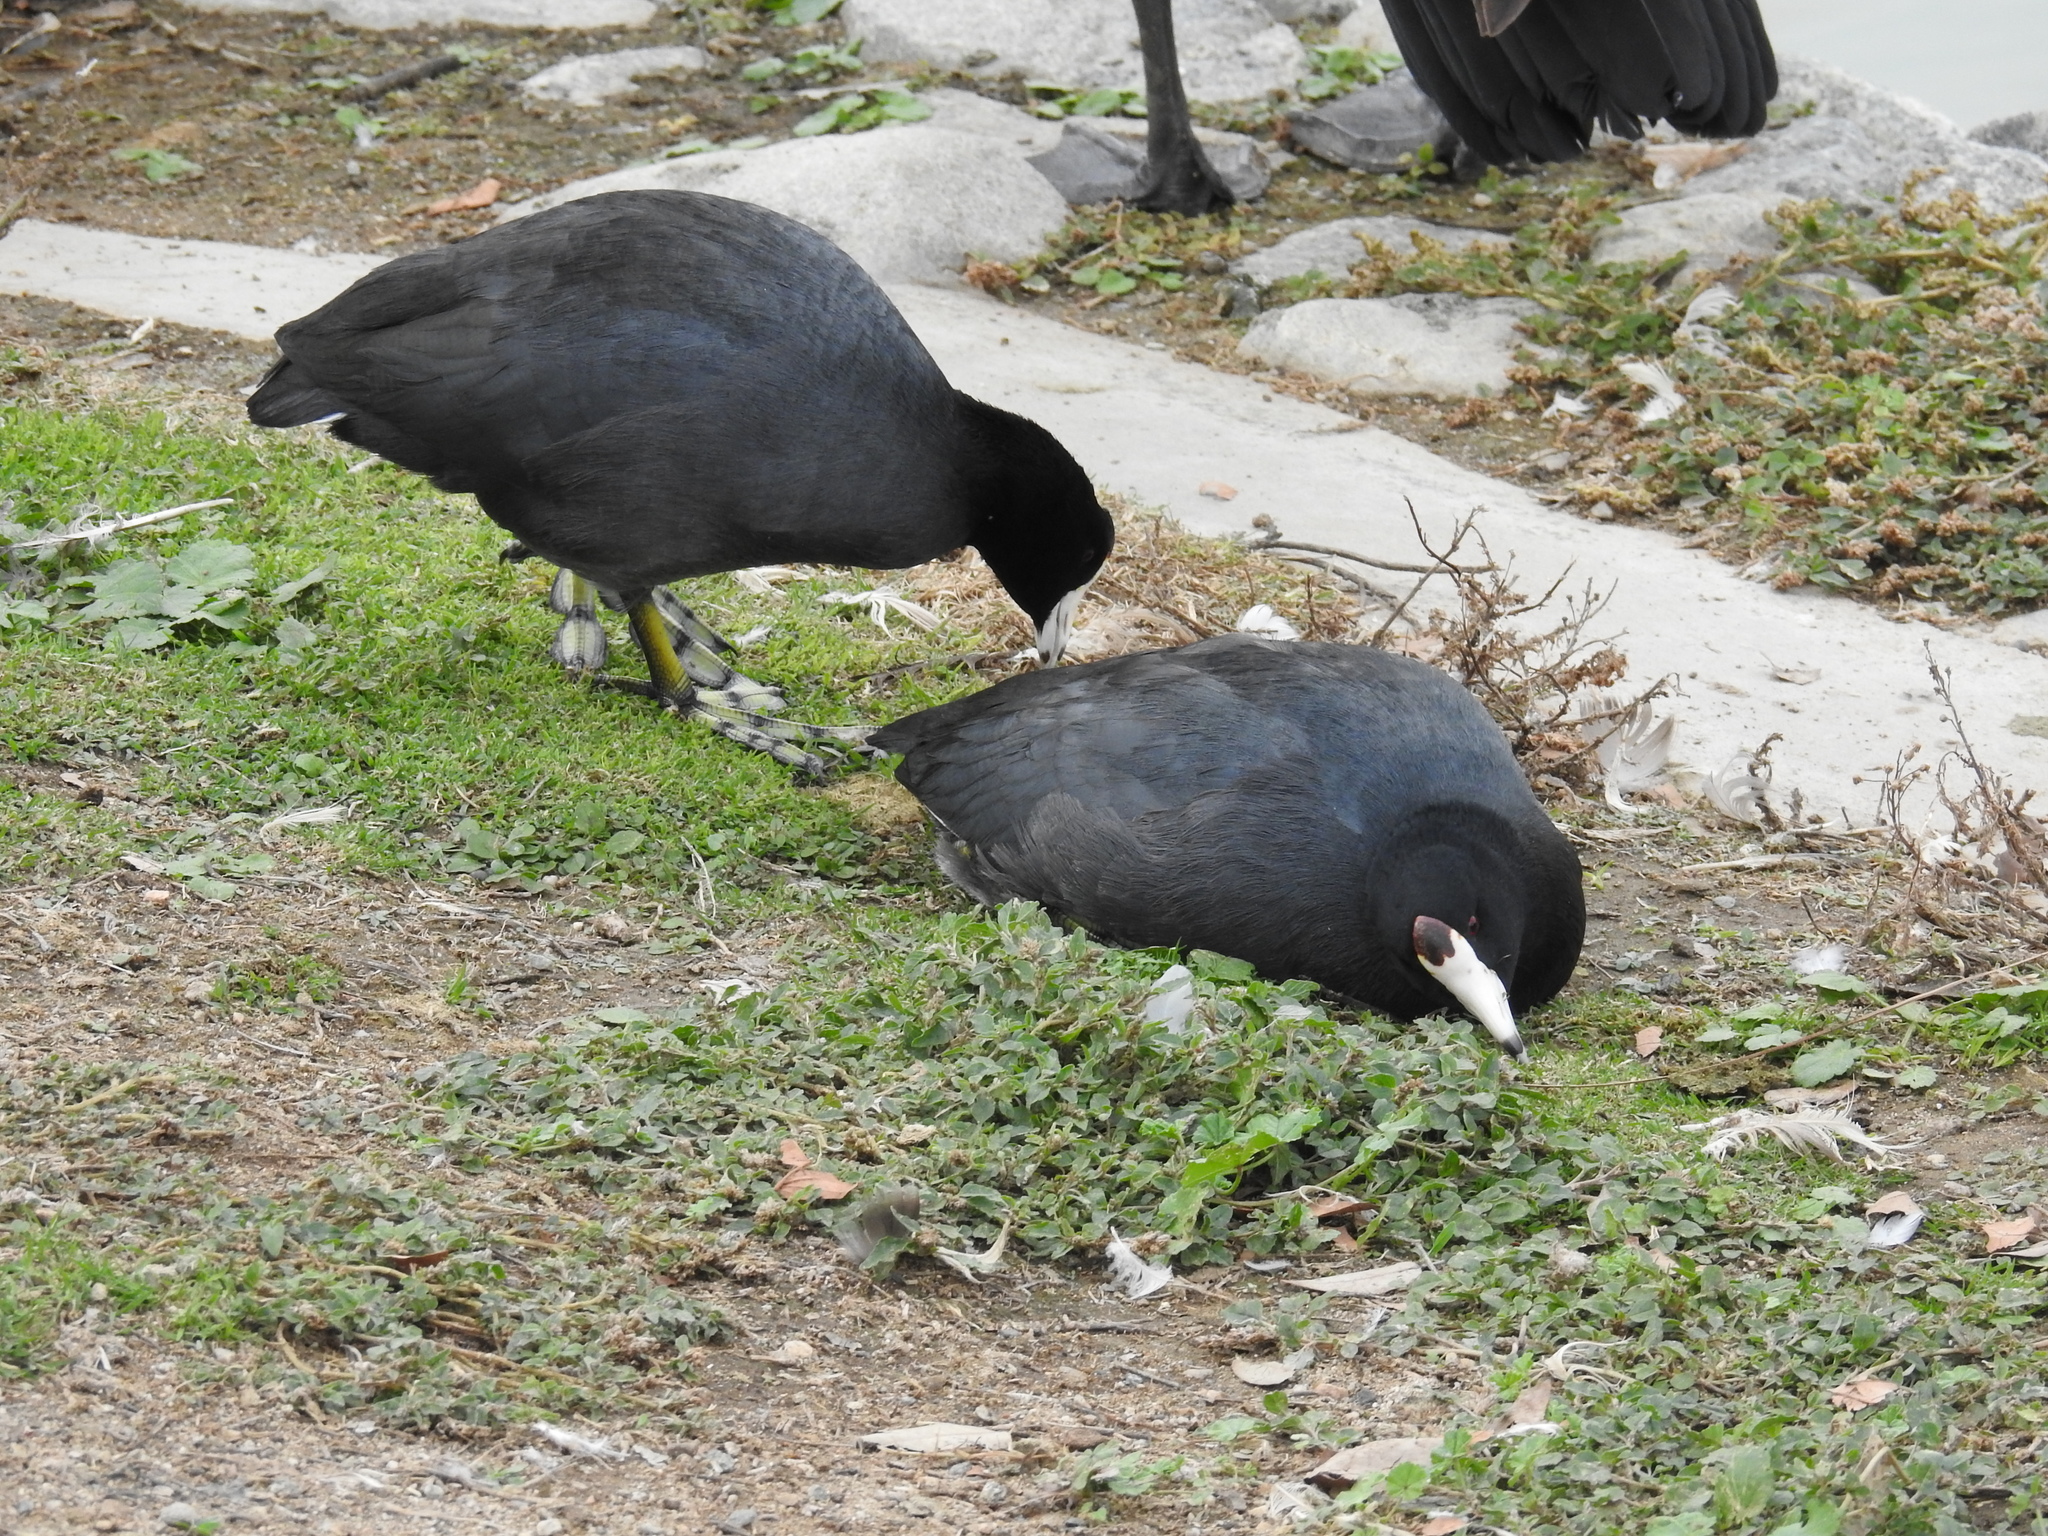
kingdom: Animalia
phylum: Chordata
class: Aves
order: Gruiformes
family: Rallidae
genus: Fulica
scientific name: Fulica americana
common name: American coot
